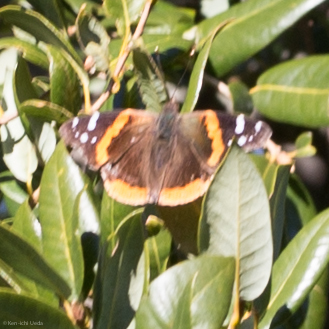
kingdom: Animalia
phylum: Arthropoda
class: Insecta
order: Lepidoptera
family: Nymphalidae
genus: Vanessa
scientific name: Vanessa atalanta
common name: Red admiral
